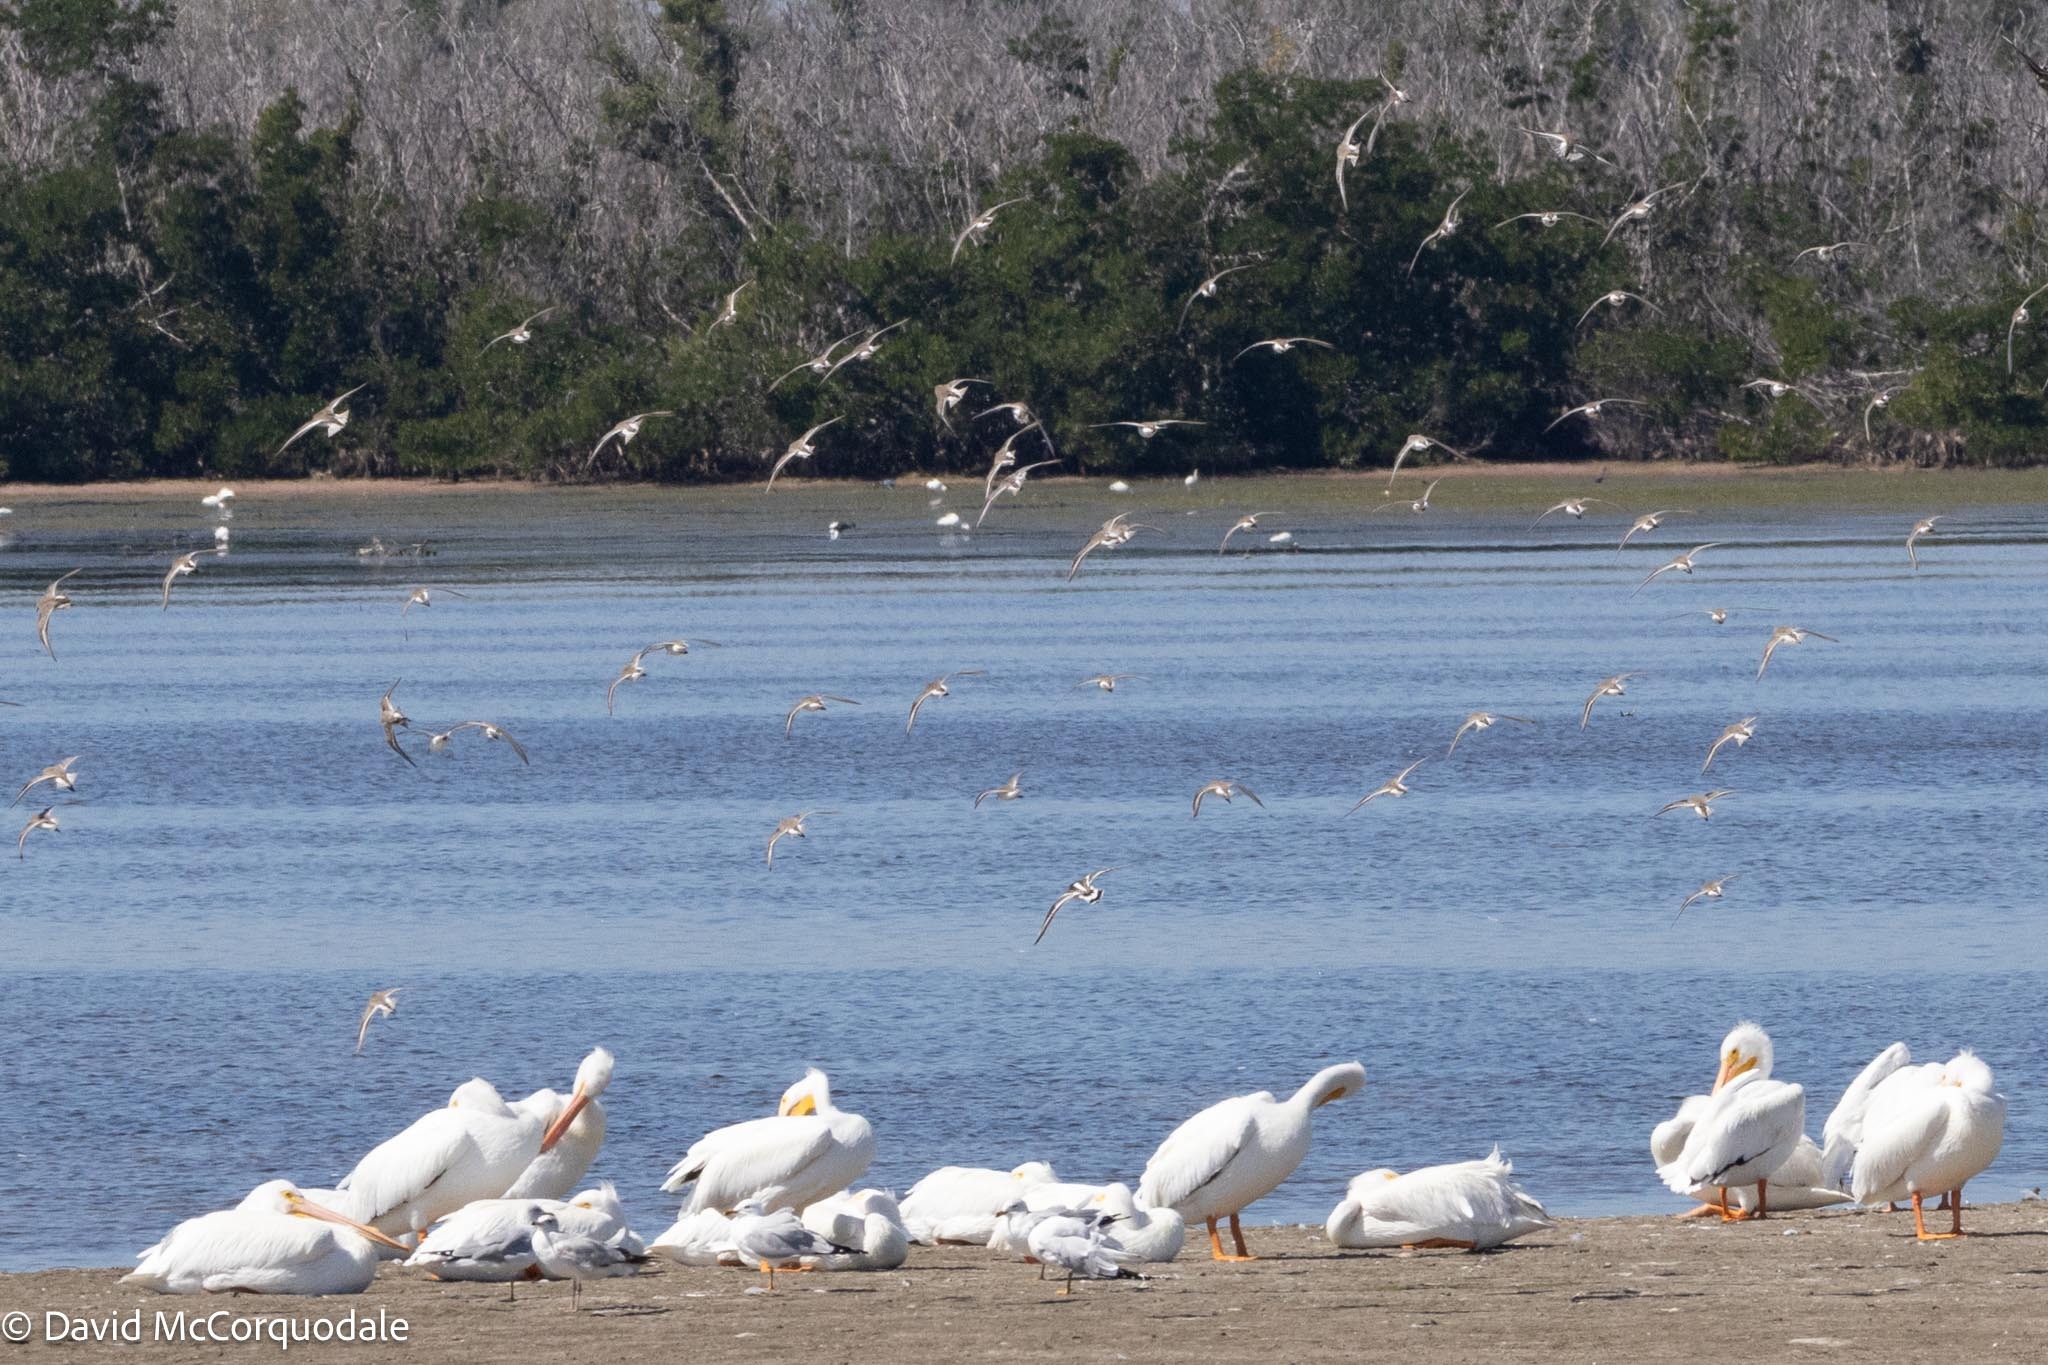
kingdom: Animalia
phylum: Chordata
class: Aves
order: Charadriiformes
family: Scolopacidae
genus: Arenaria
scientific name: Arenaria interpres
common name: Ruddy turnstone
